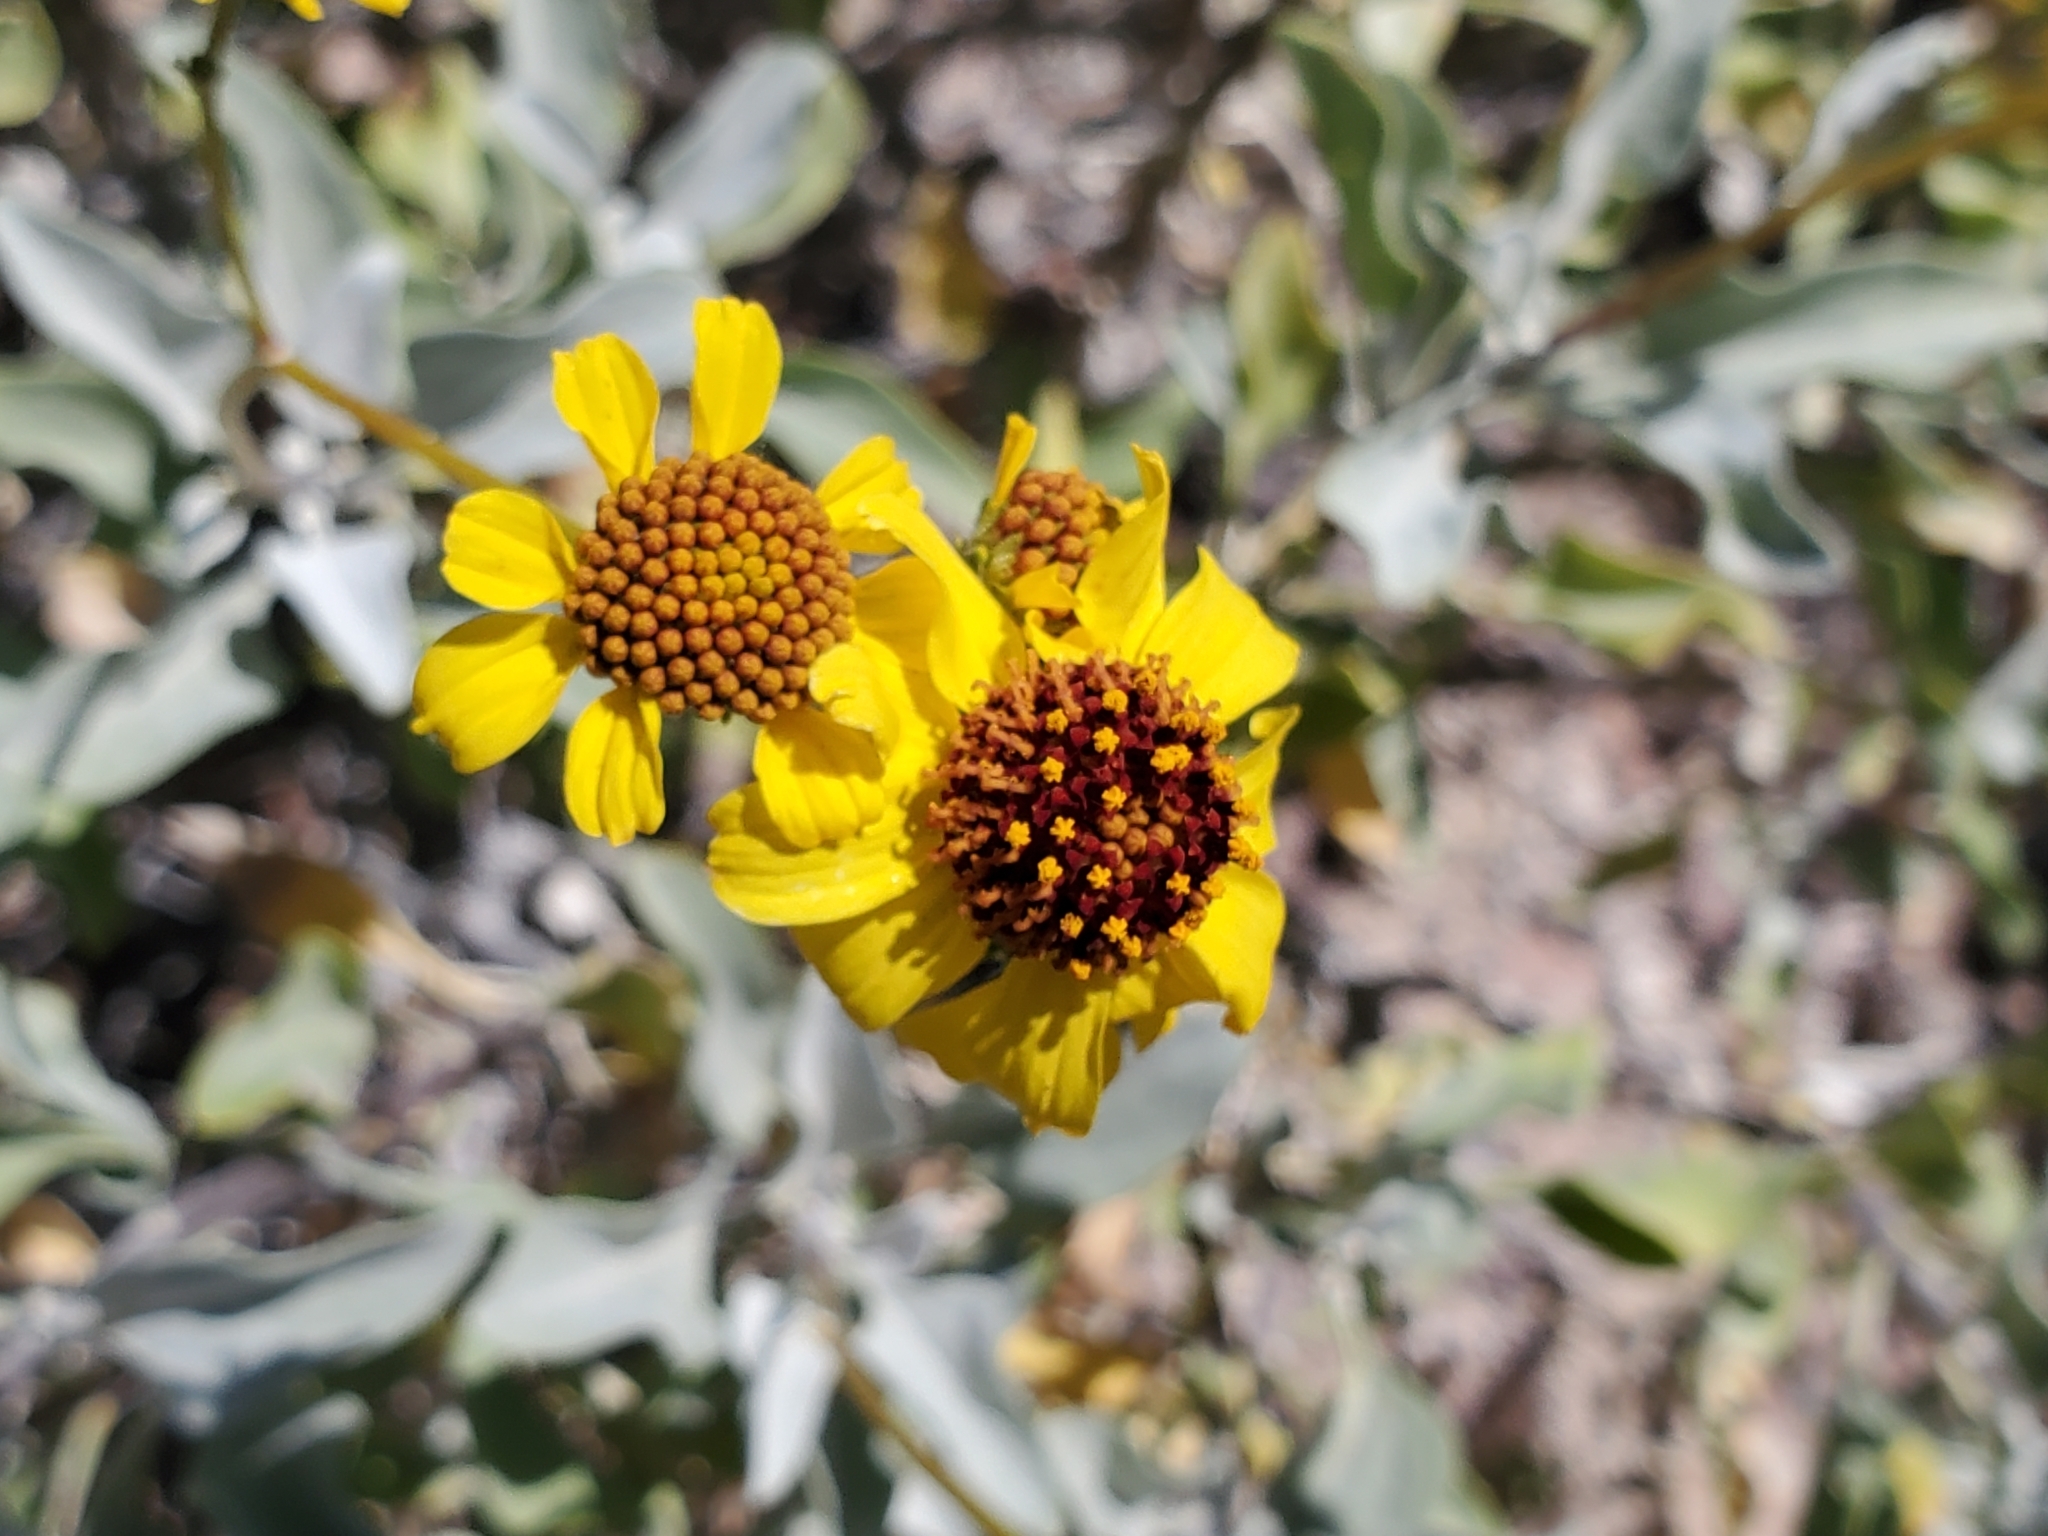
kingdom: Plantae
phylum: Tracheophyta
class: Magnoliopsida
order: Asterales
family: Asteraceae
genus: Encelia
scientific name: Encelia farinosa
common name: Brittlebush
